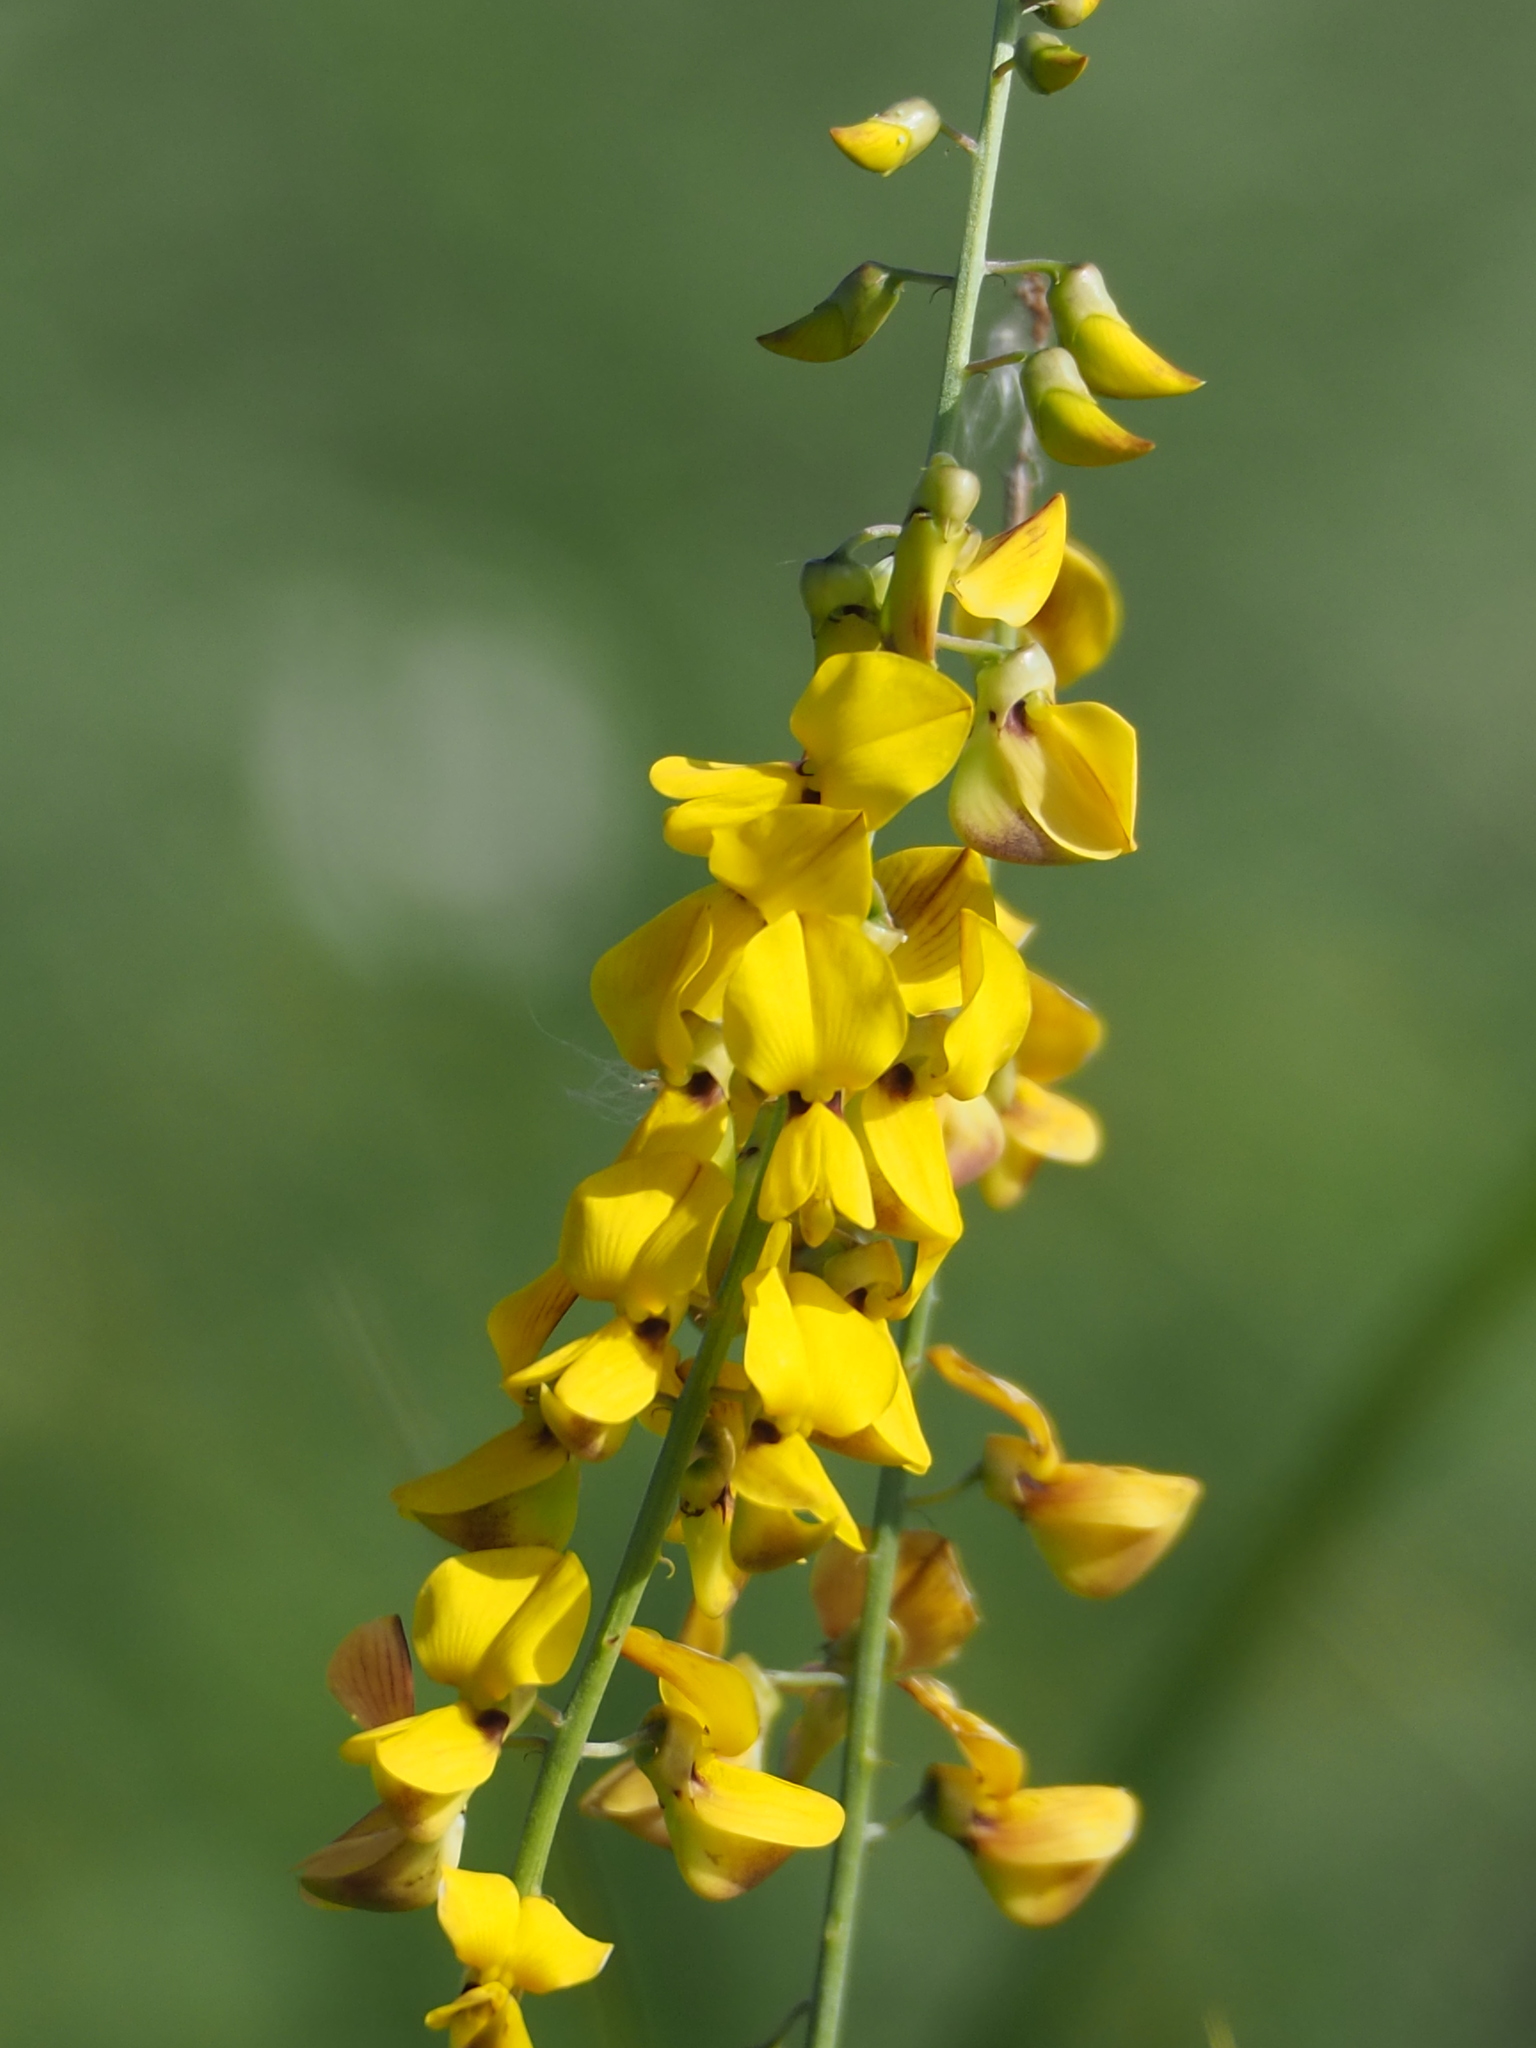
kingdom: Plantae
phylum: Tracheophyta
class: Magnoliopsida
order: Fabales
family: Fabaceae
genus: Crotalaria
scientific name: Crotalaria trichotoma
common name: West indian rattlebox
